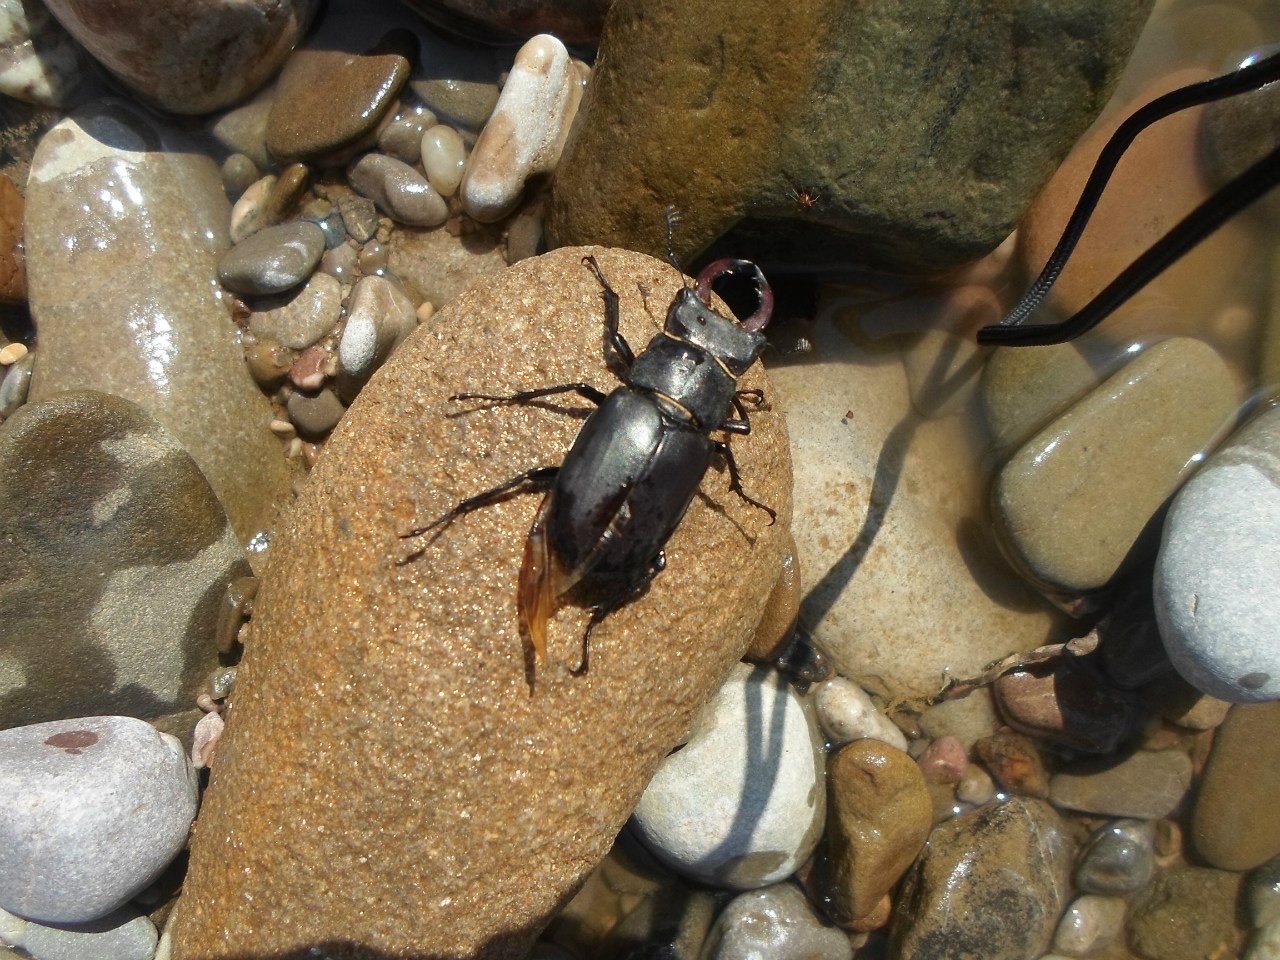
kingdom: Animalia
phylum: Arthropoda
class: Insecta
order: Coleoptera
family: Lucanidae
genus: Lucanus
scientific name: Lucanus cervus
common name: Stag beetle
